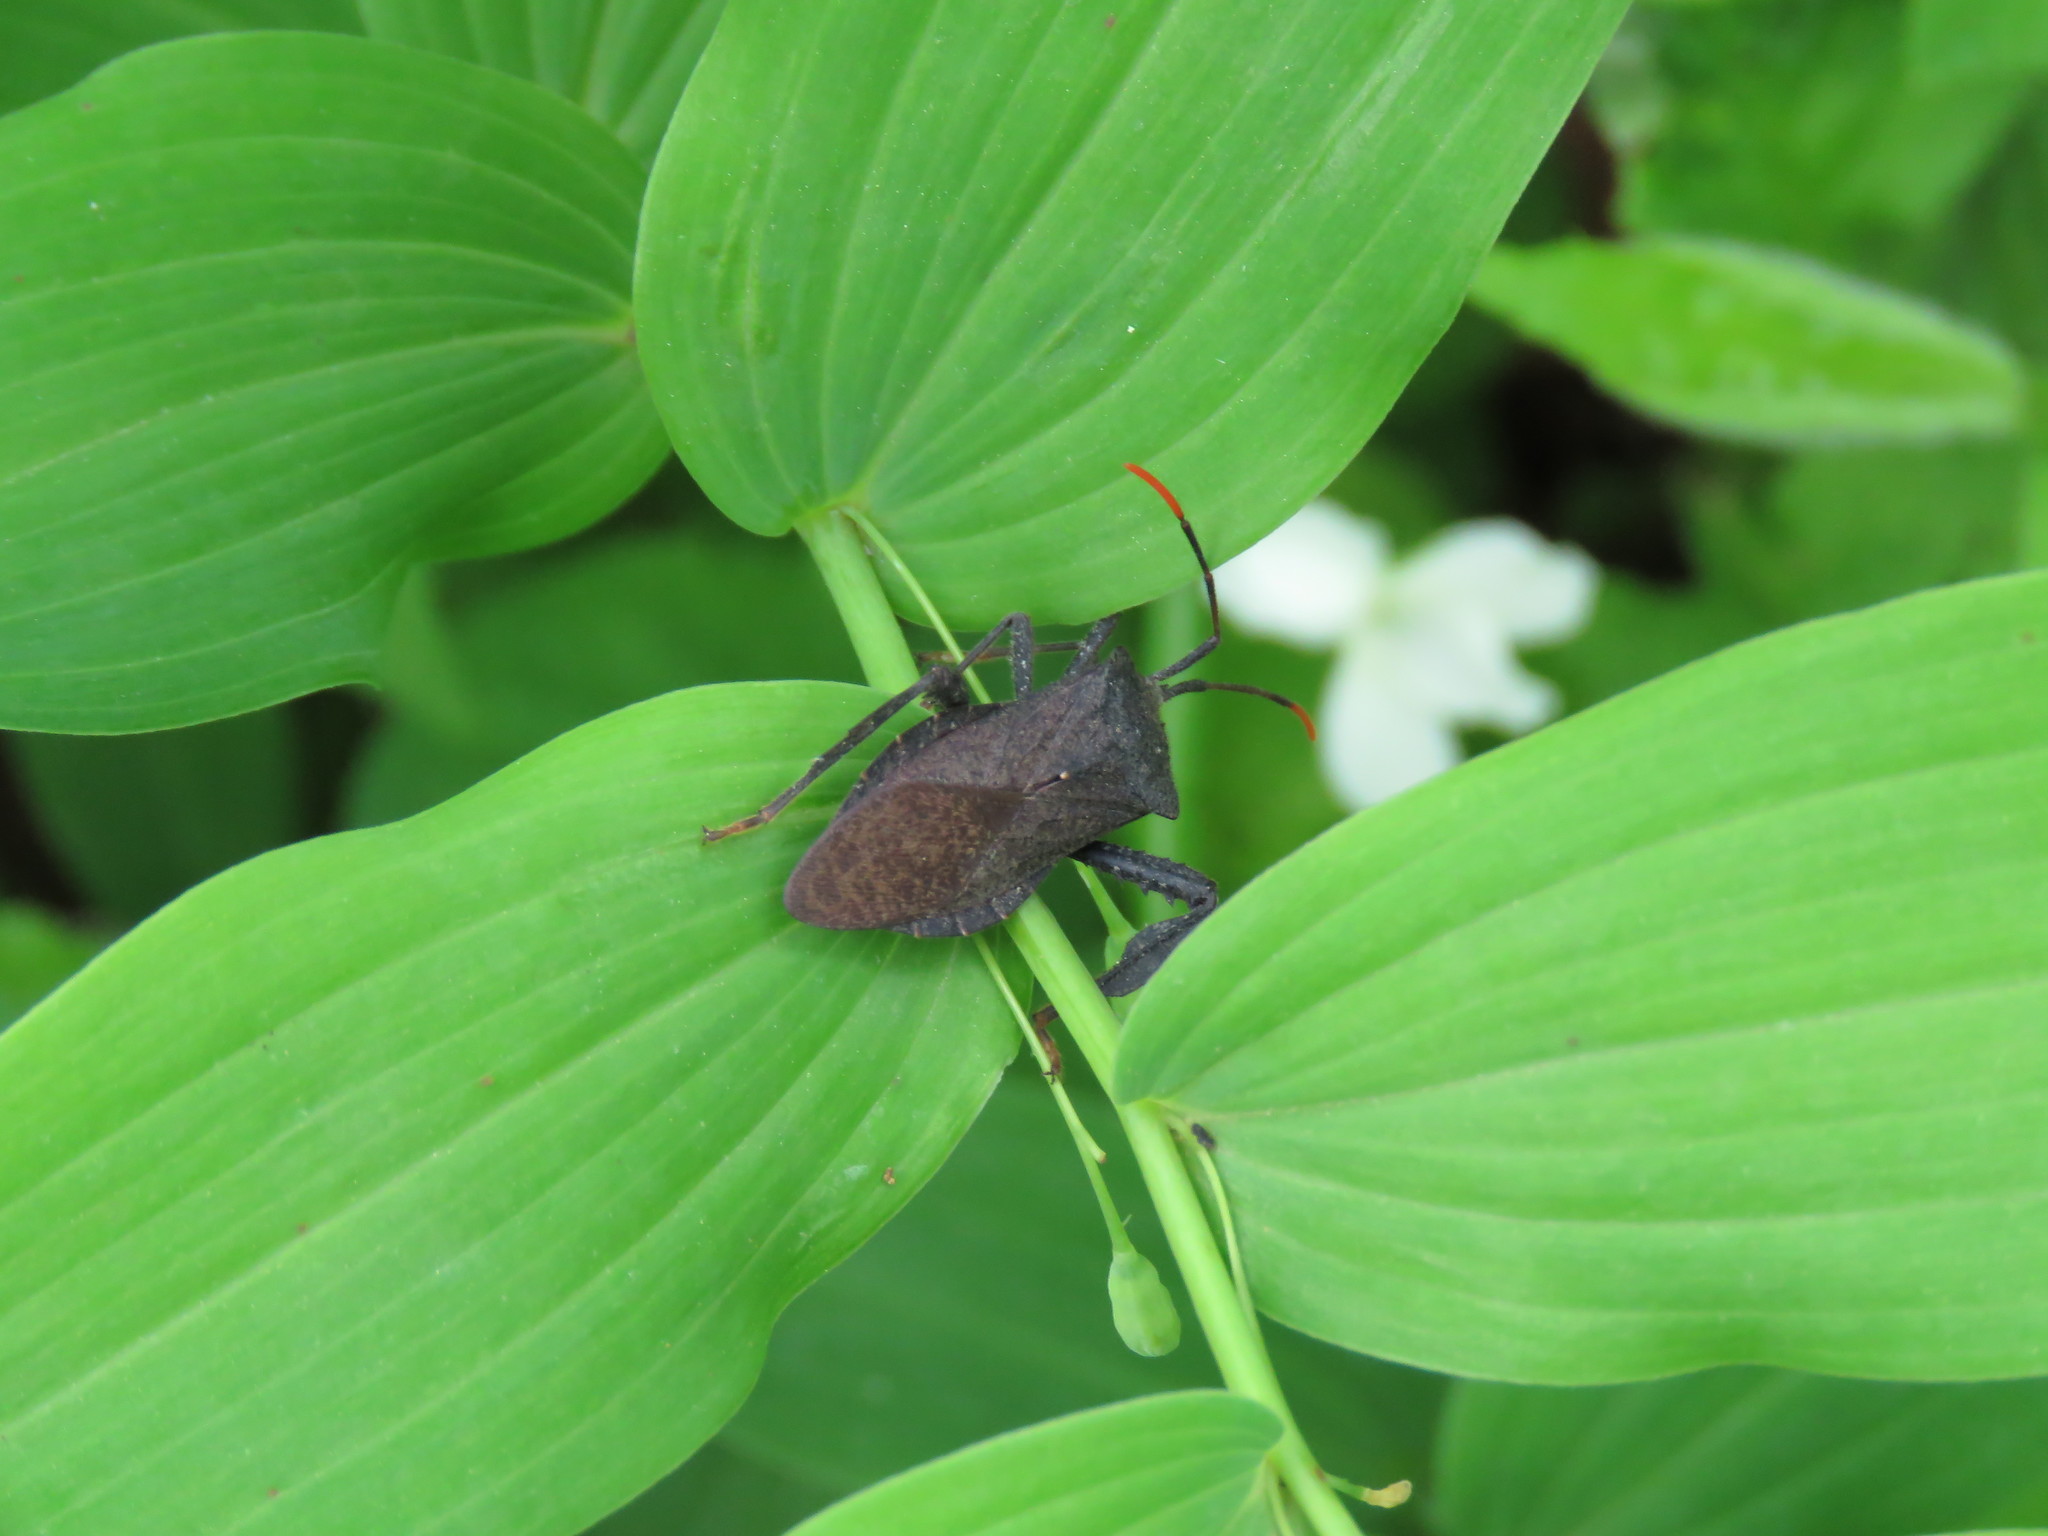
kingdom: Animalia
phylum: Arthropoda
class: Insecta
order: Hemiptera
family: Coreidae
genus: Acanthocephala
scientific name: Acanthocephala terminalis
